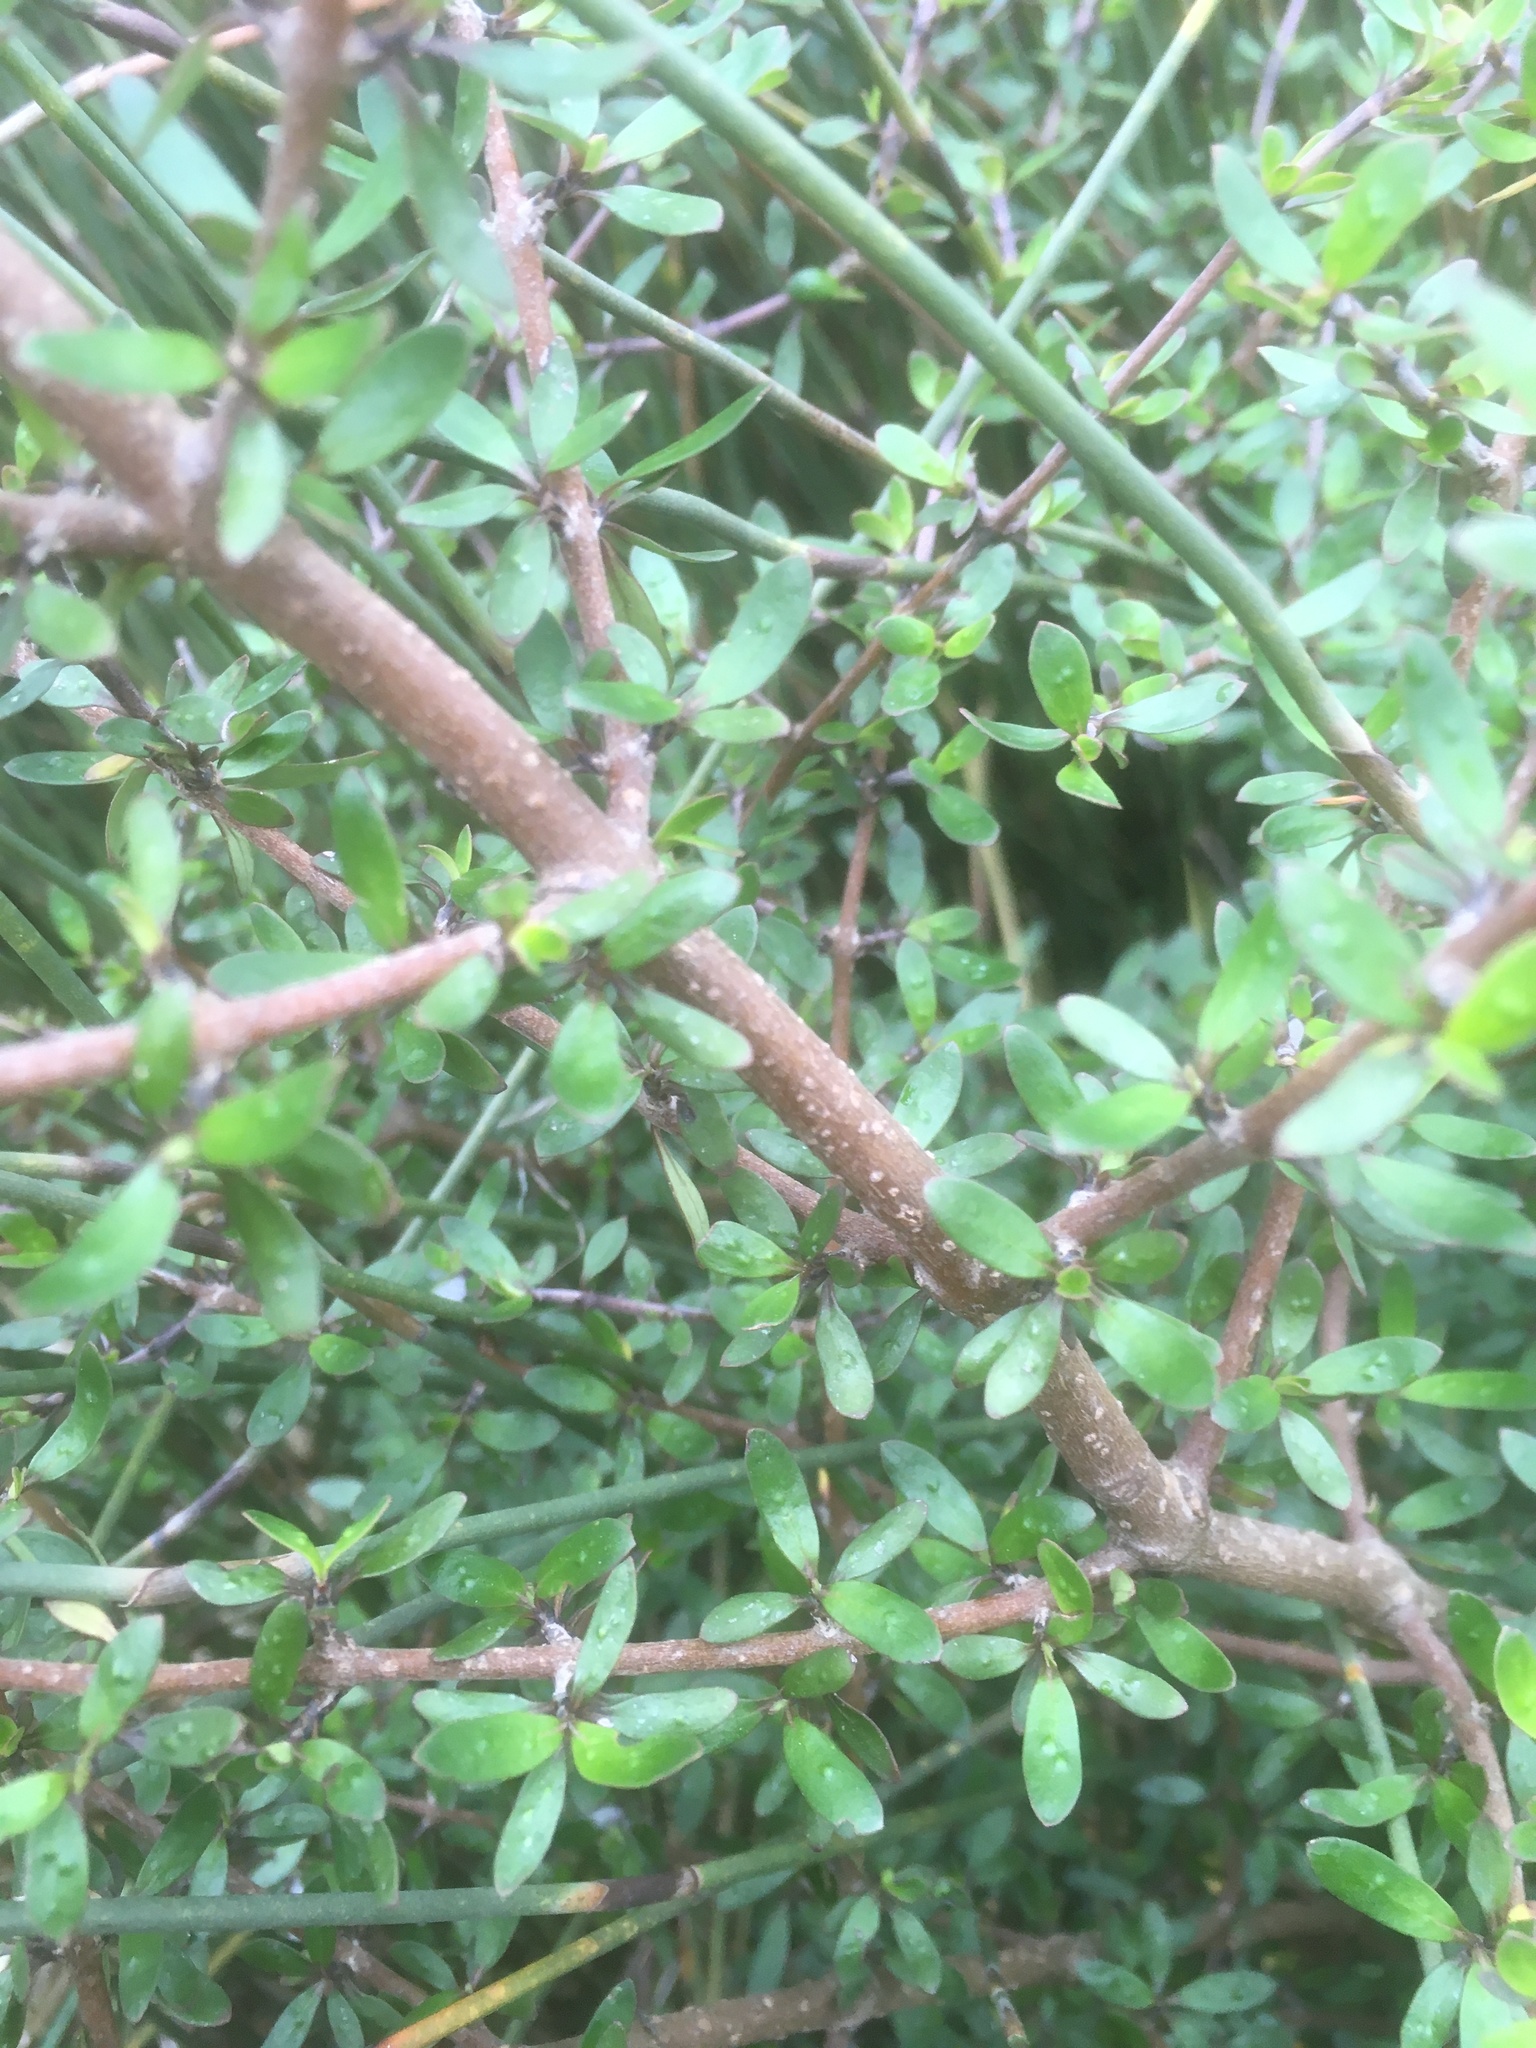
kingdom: Plantae
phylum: Tracheophyta
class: Magnoliopsida
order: Gentianales
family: Rubiaceae
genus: Coprosma
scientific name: Coprosma propinqua
